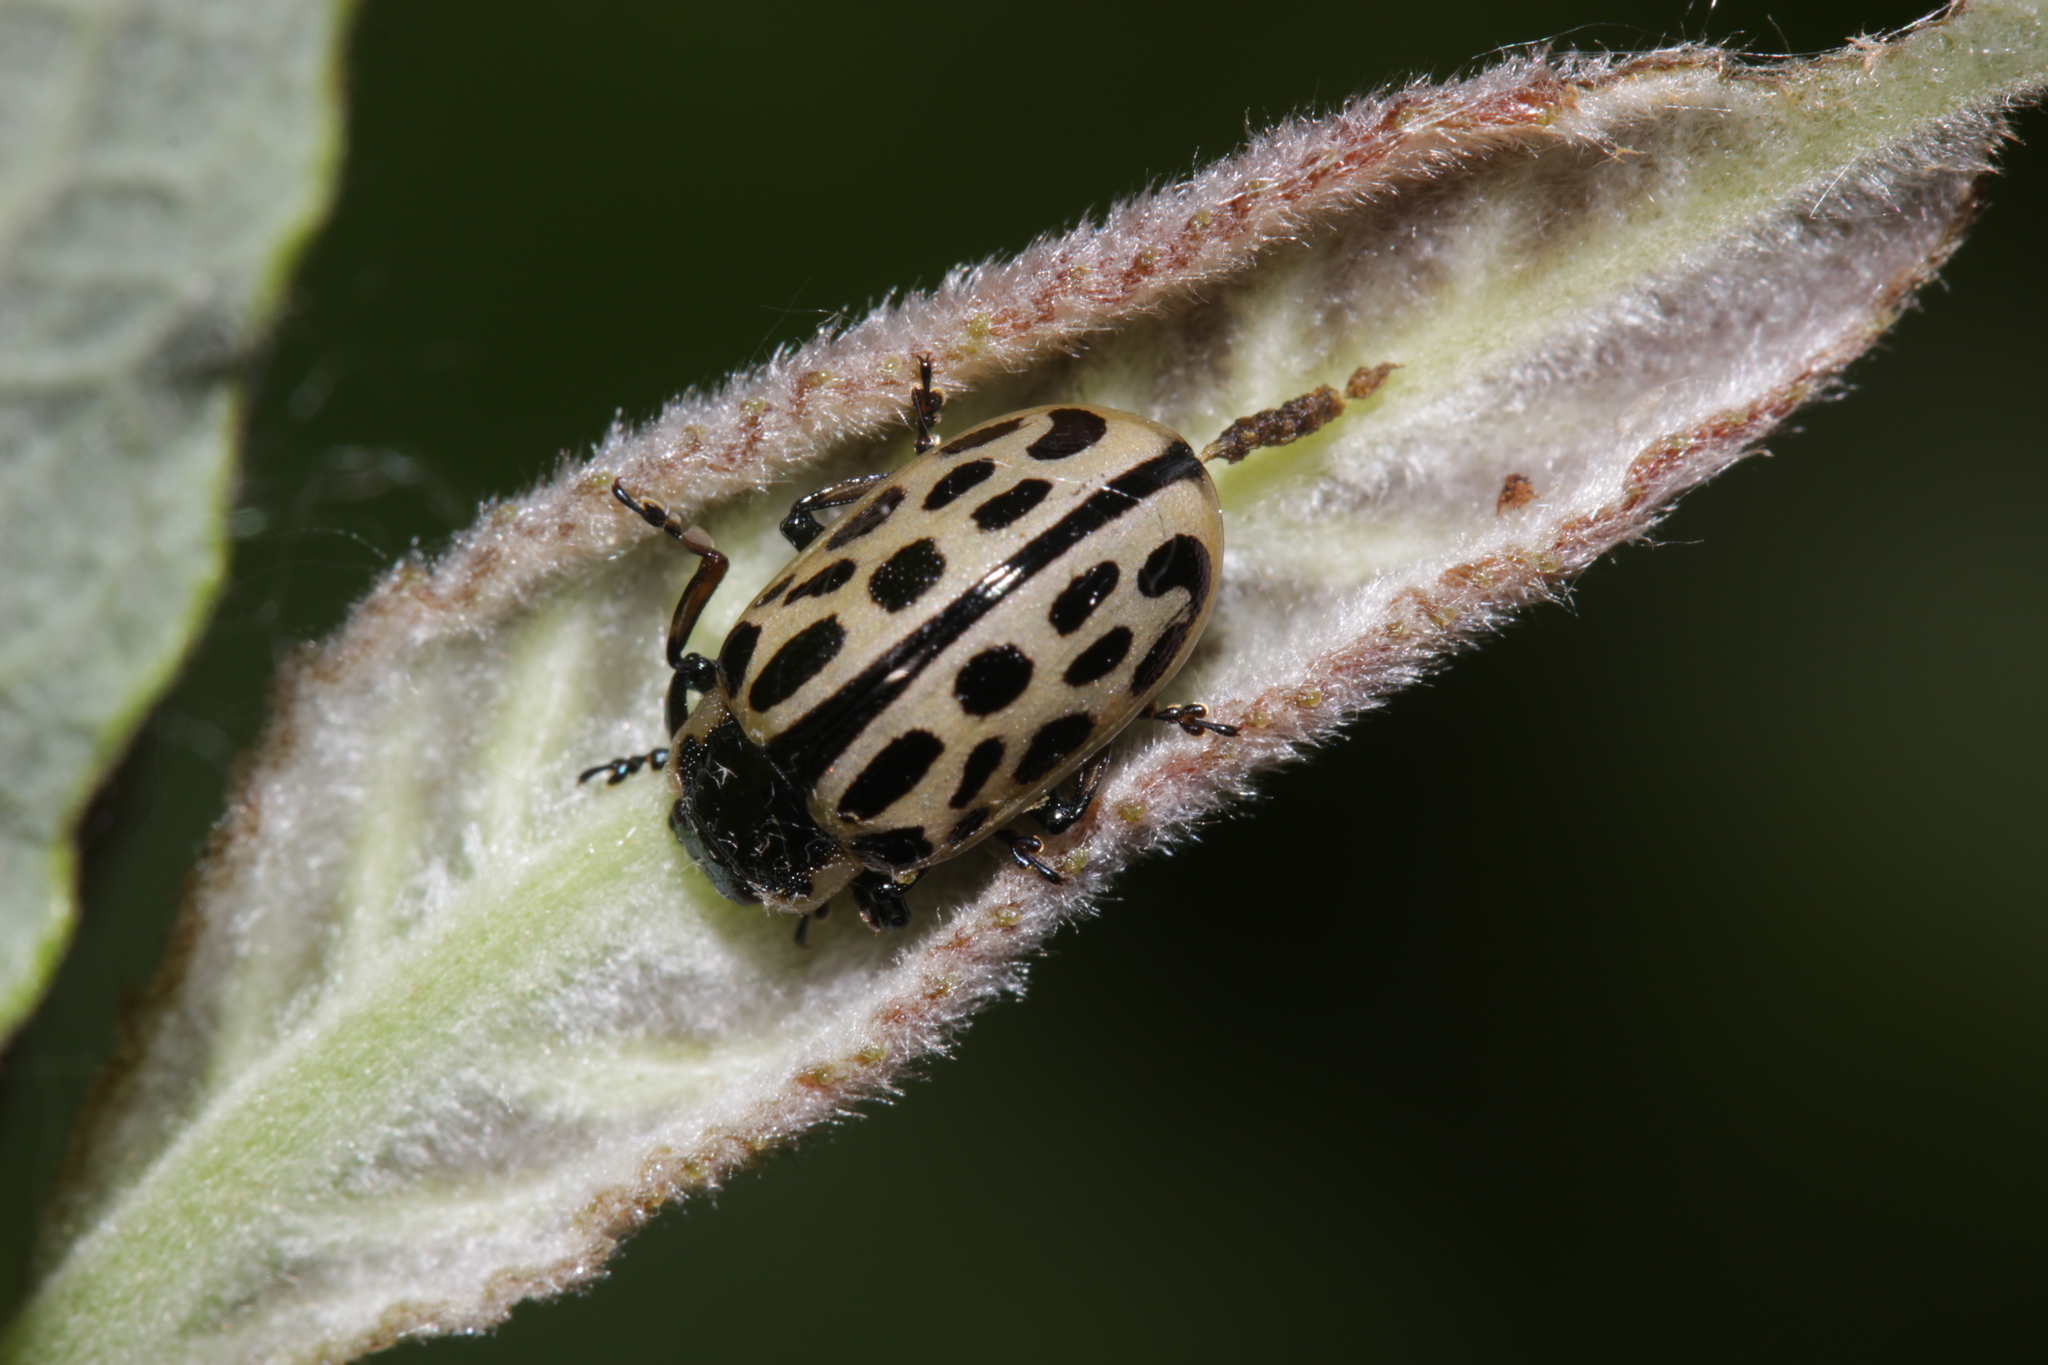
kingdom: Animalia
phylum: Arthropoda
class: Insecta
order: Coleoptera
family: Chrysomelidae
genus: Chrysomela
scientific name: Chrysomela vigintipunctata
